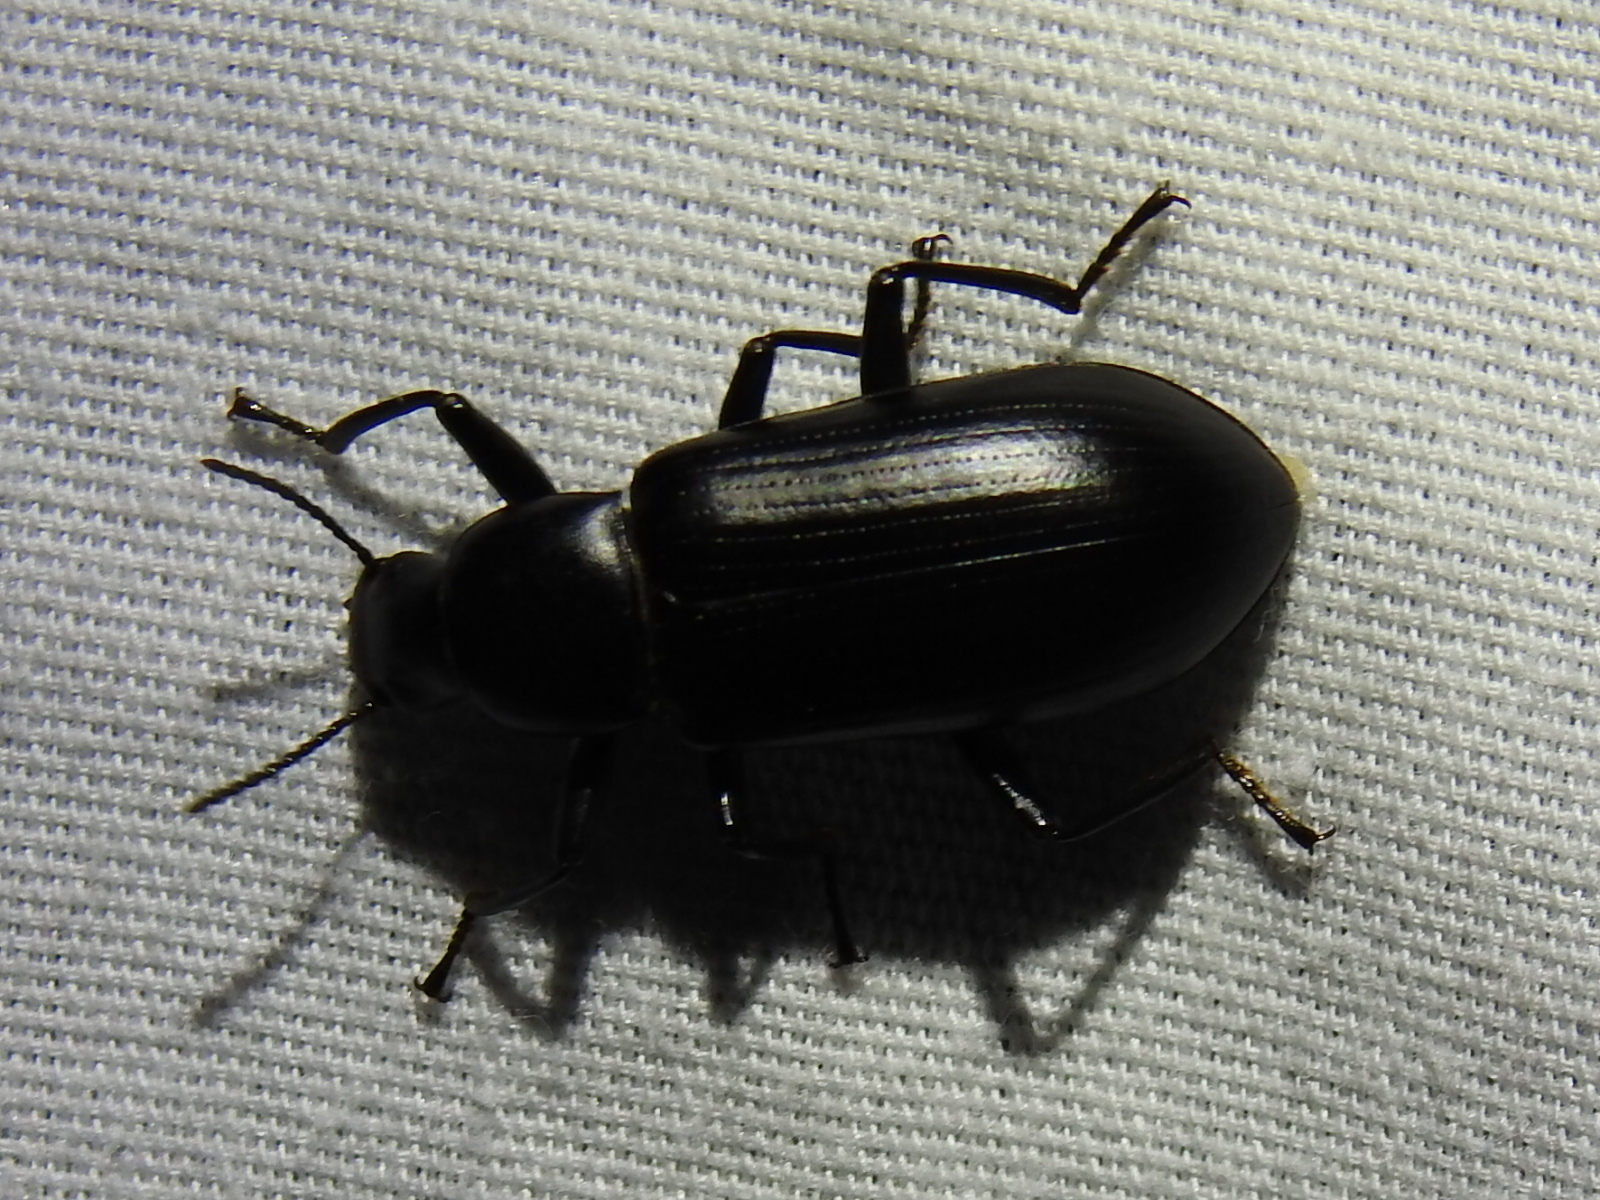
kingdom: Animalia
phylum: Arthropoda
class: Insecta
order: Coleoptera
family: Tenebrionidae
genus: Alobates
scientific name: Alobates pensylvanicus
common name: False mealworm beetle
